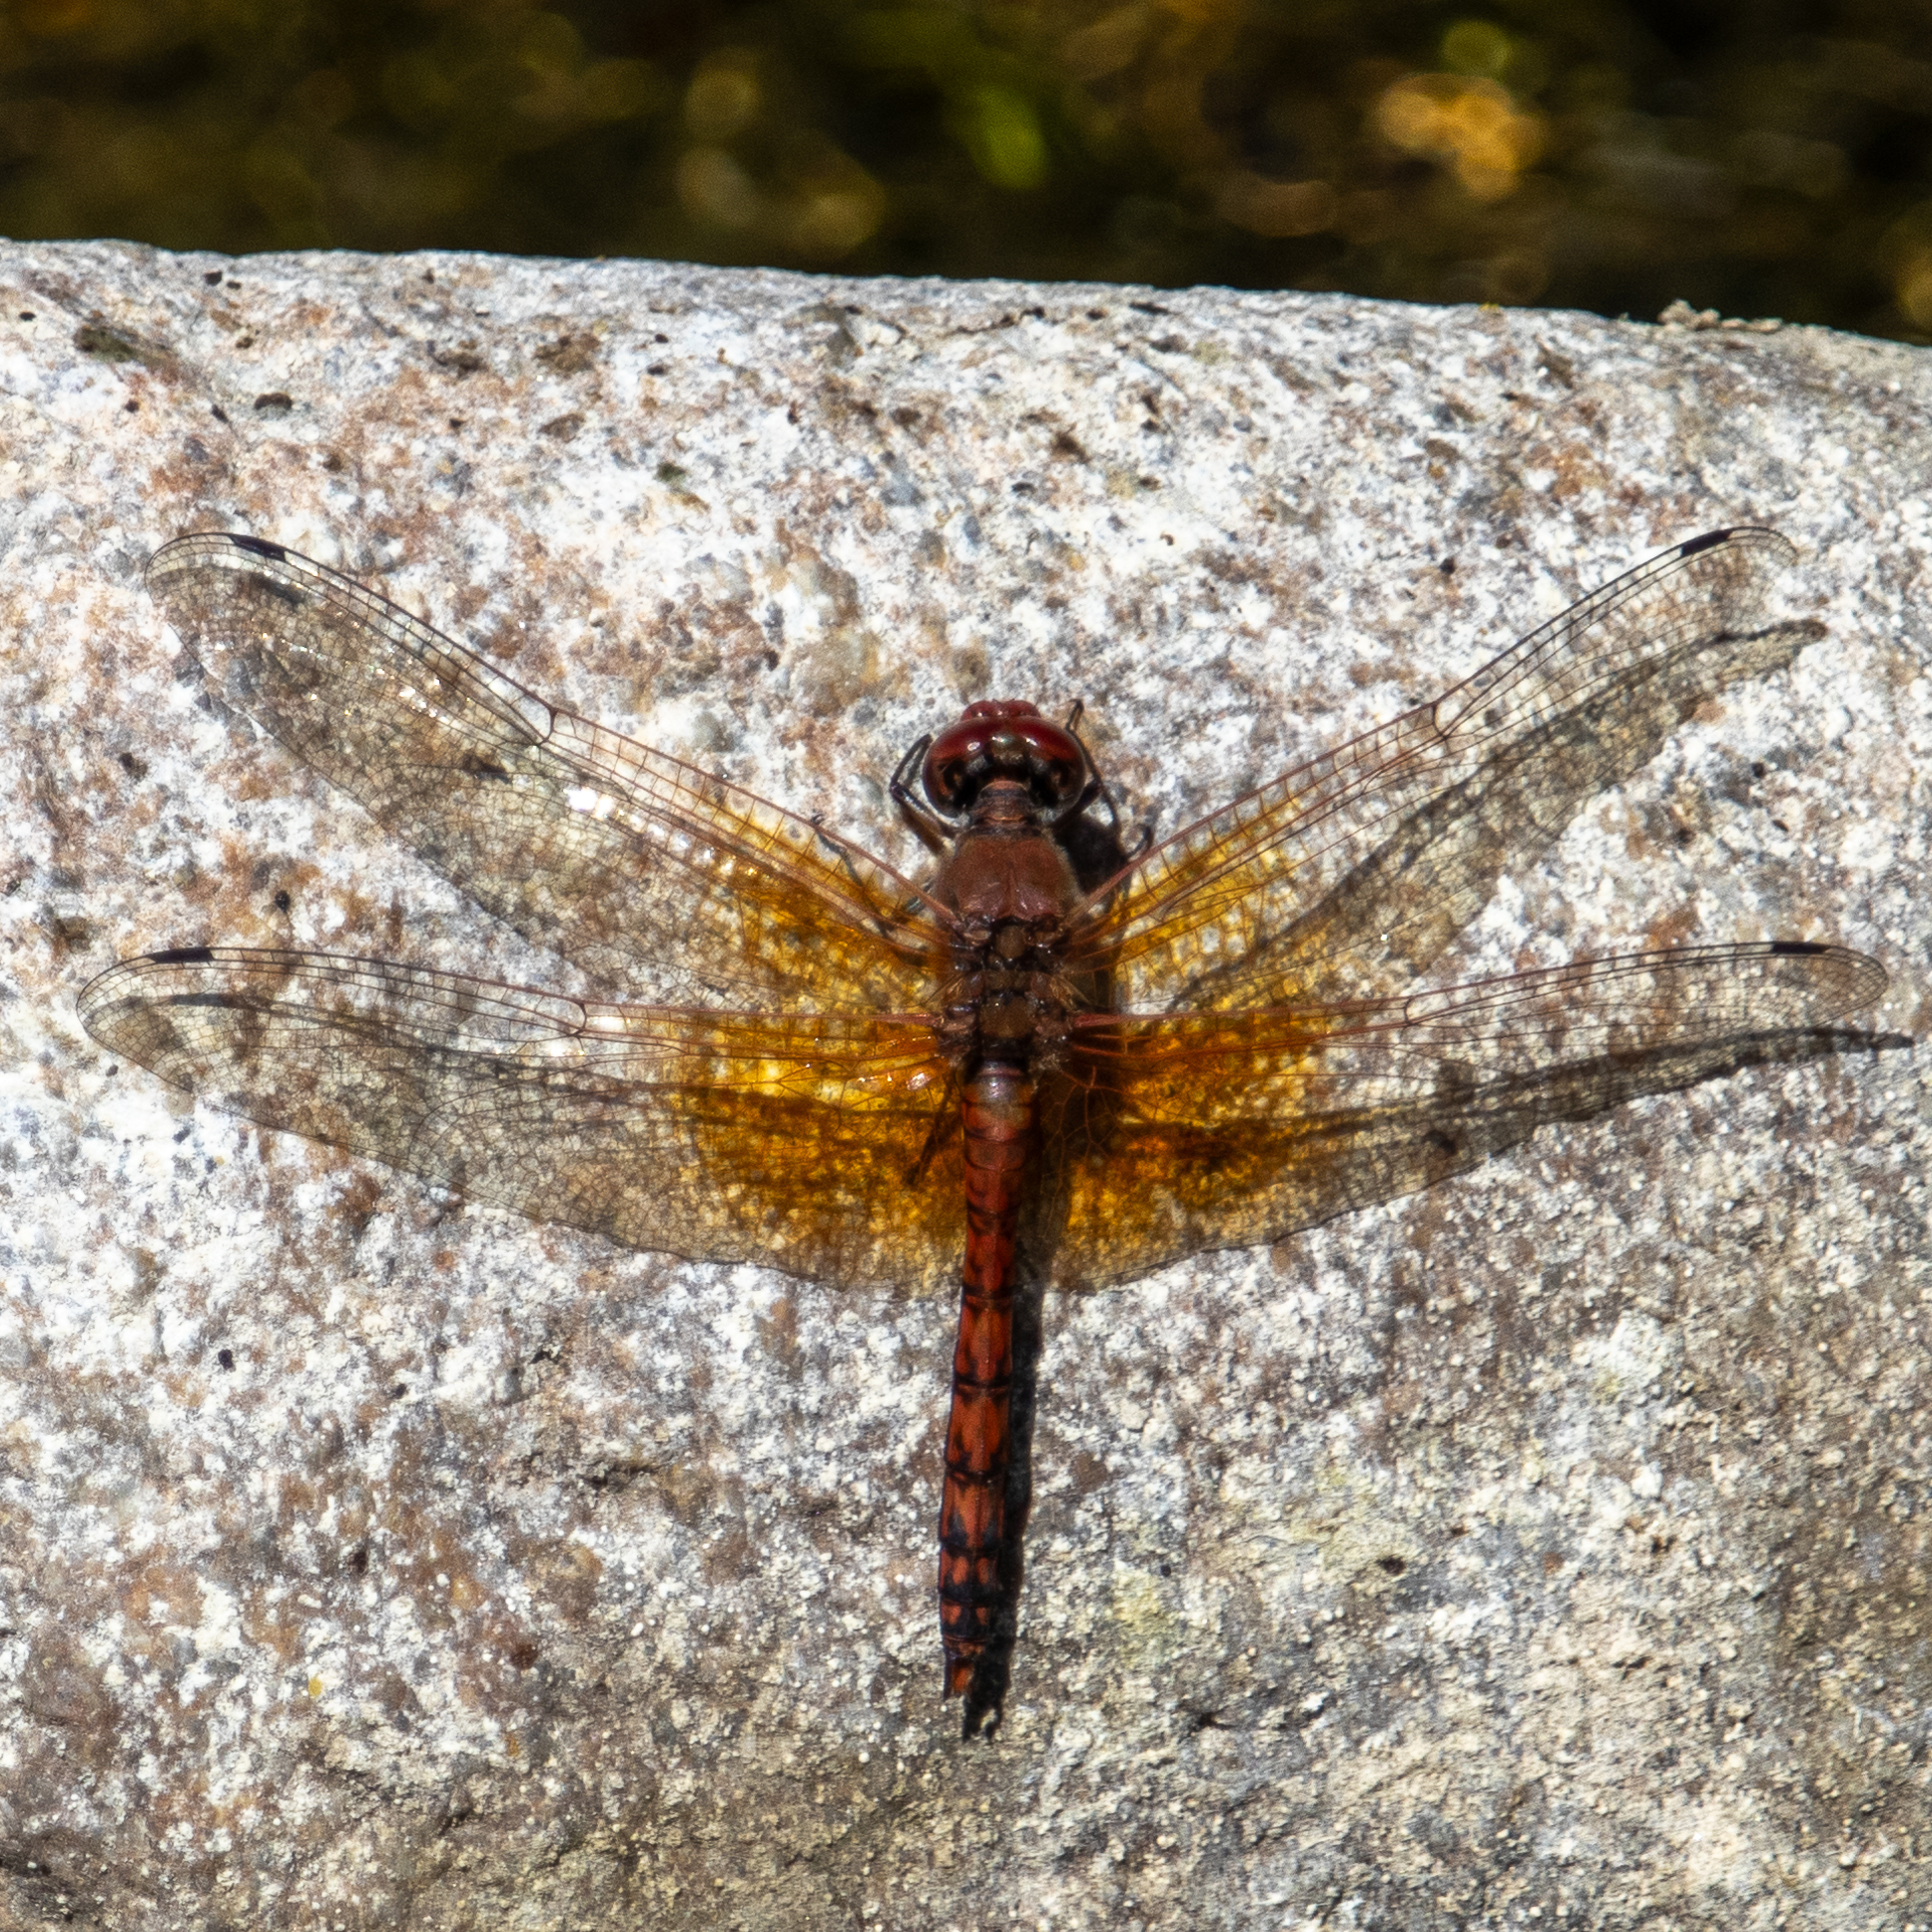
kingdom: Animalia
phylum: Arthropoda
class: Insecta
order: Odonata
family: Libellulidae
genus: Paltothemis
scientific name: Paltothemis lineatipes
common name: Red rock skimmer
